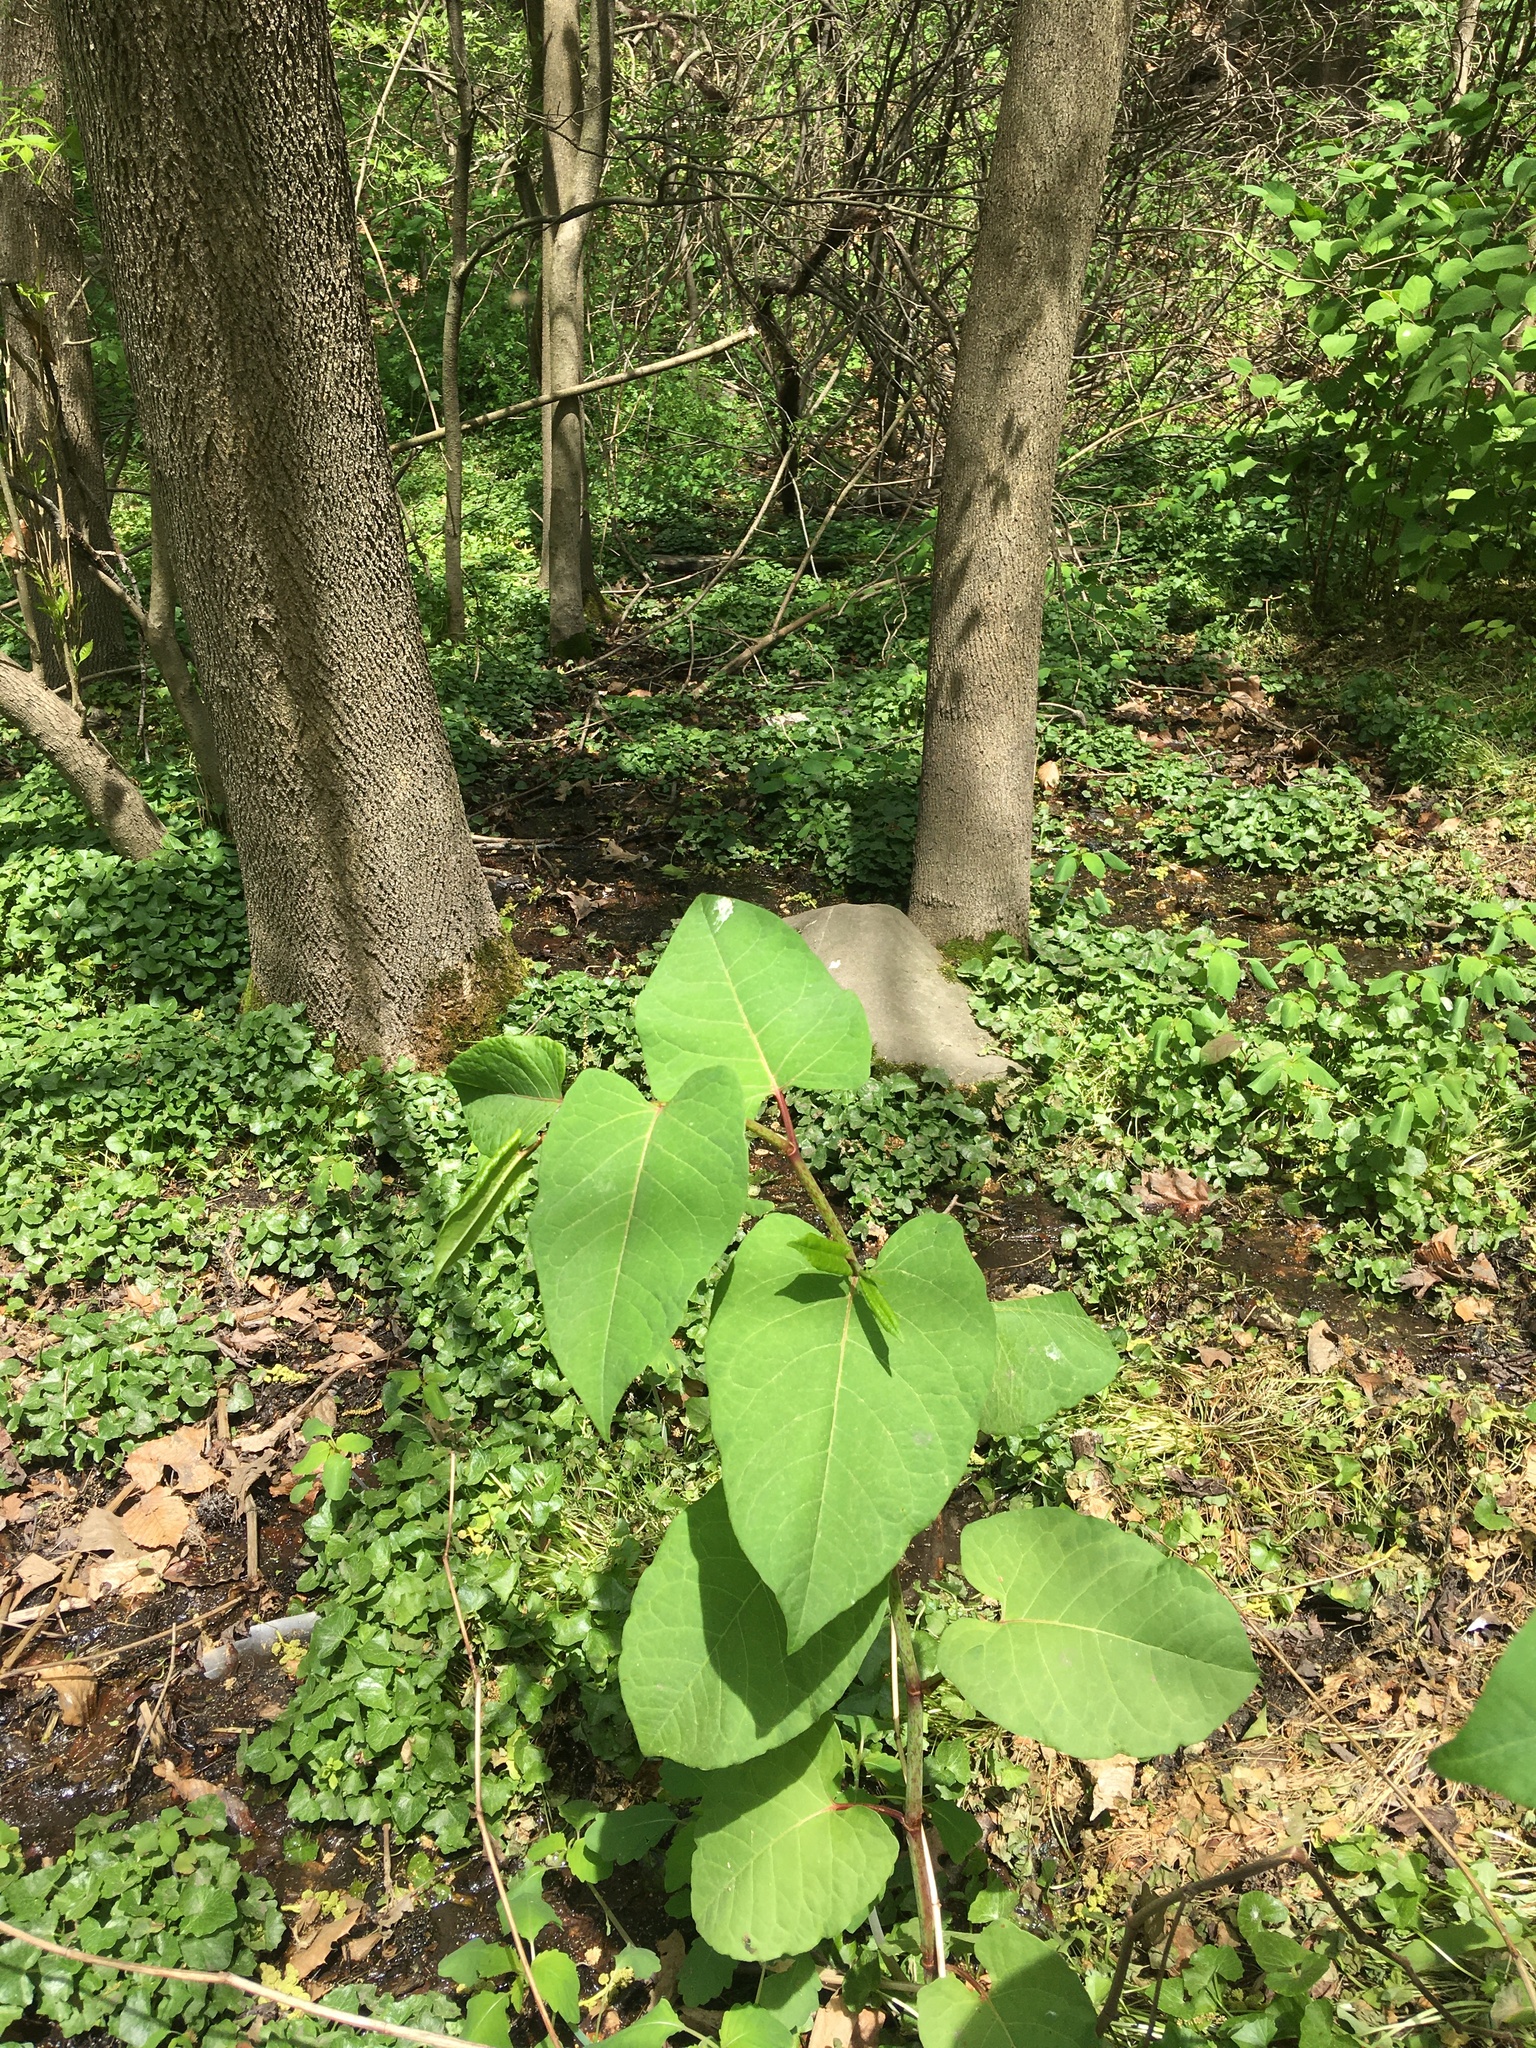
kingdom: Plantae
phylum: Tracheophyta
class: Magnoliopsida
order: Caryophyllales
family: Polygonaceae
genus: Reynoutria
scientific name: Reynoutria japonica
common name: Japanese knotweed
